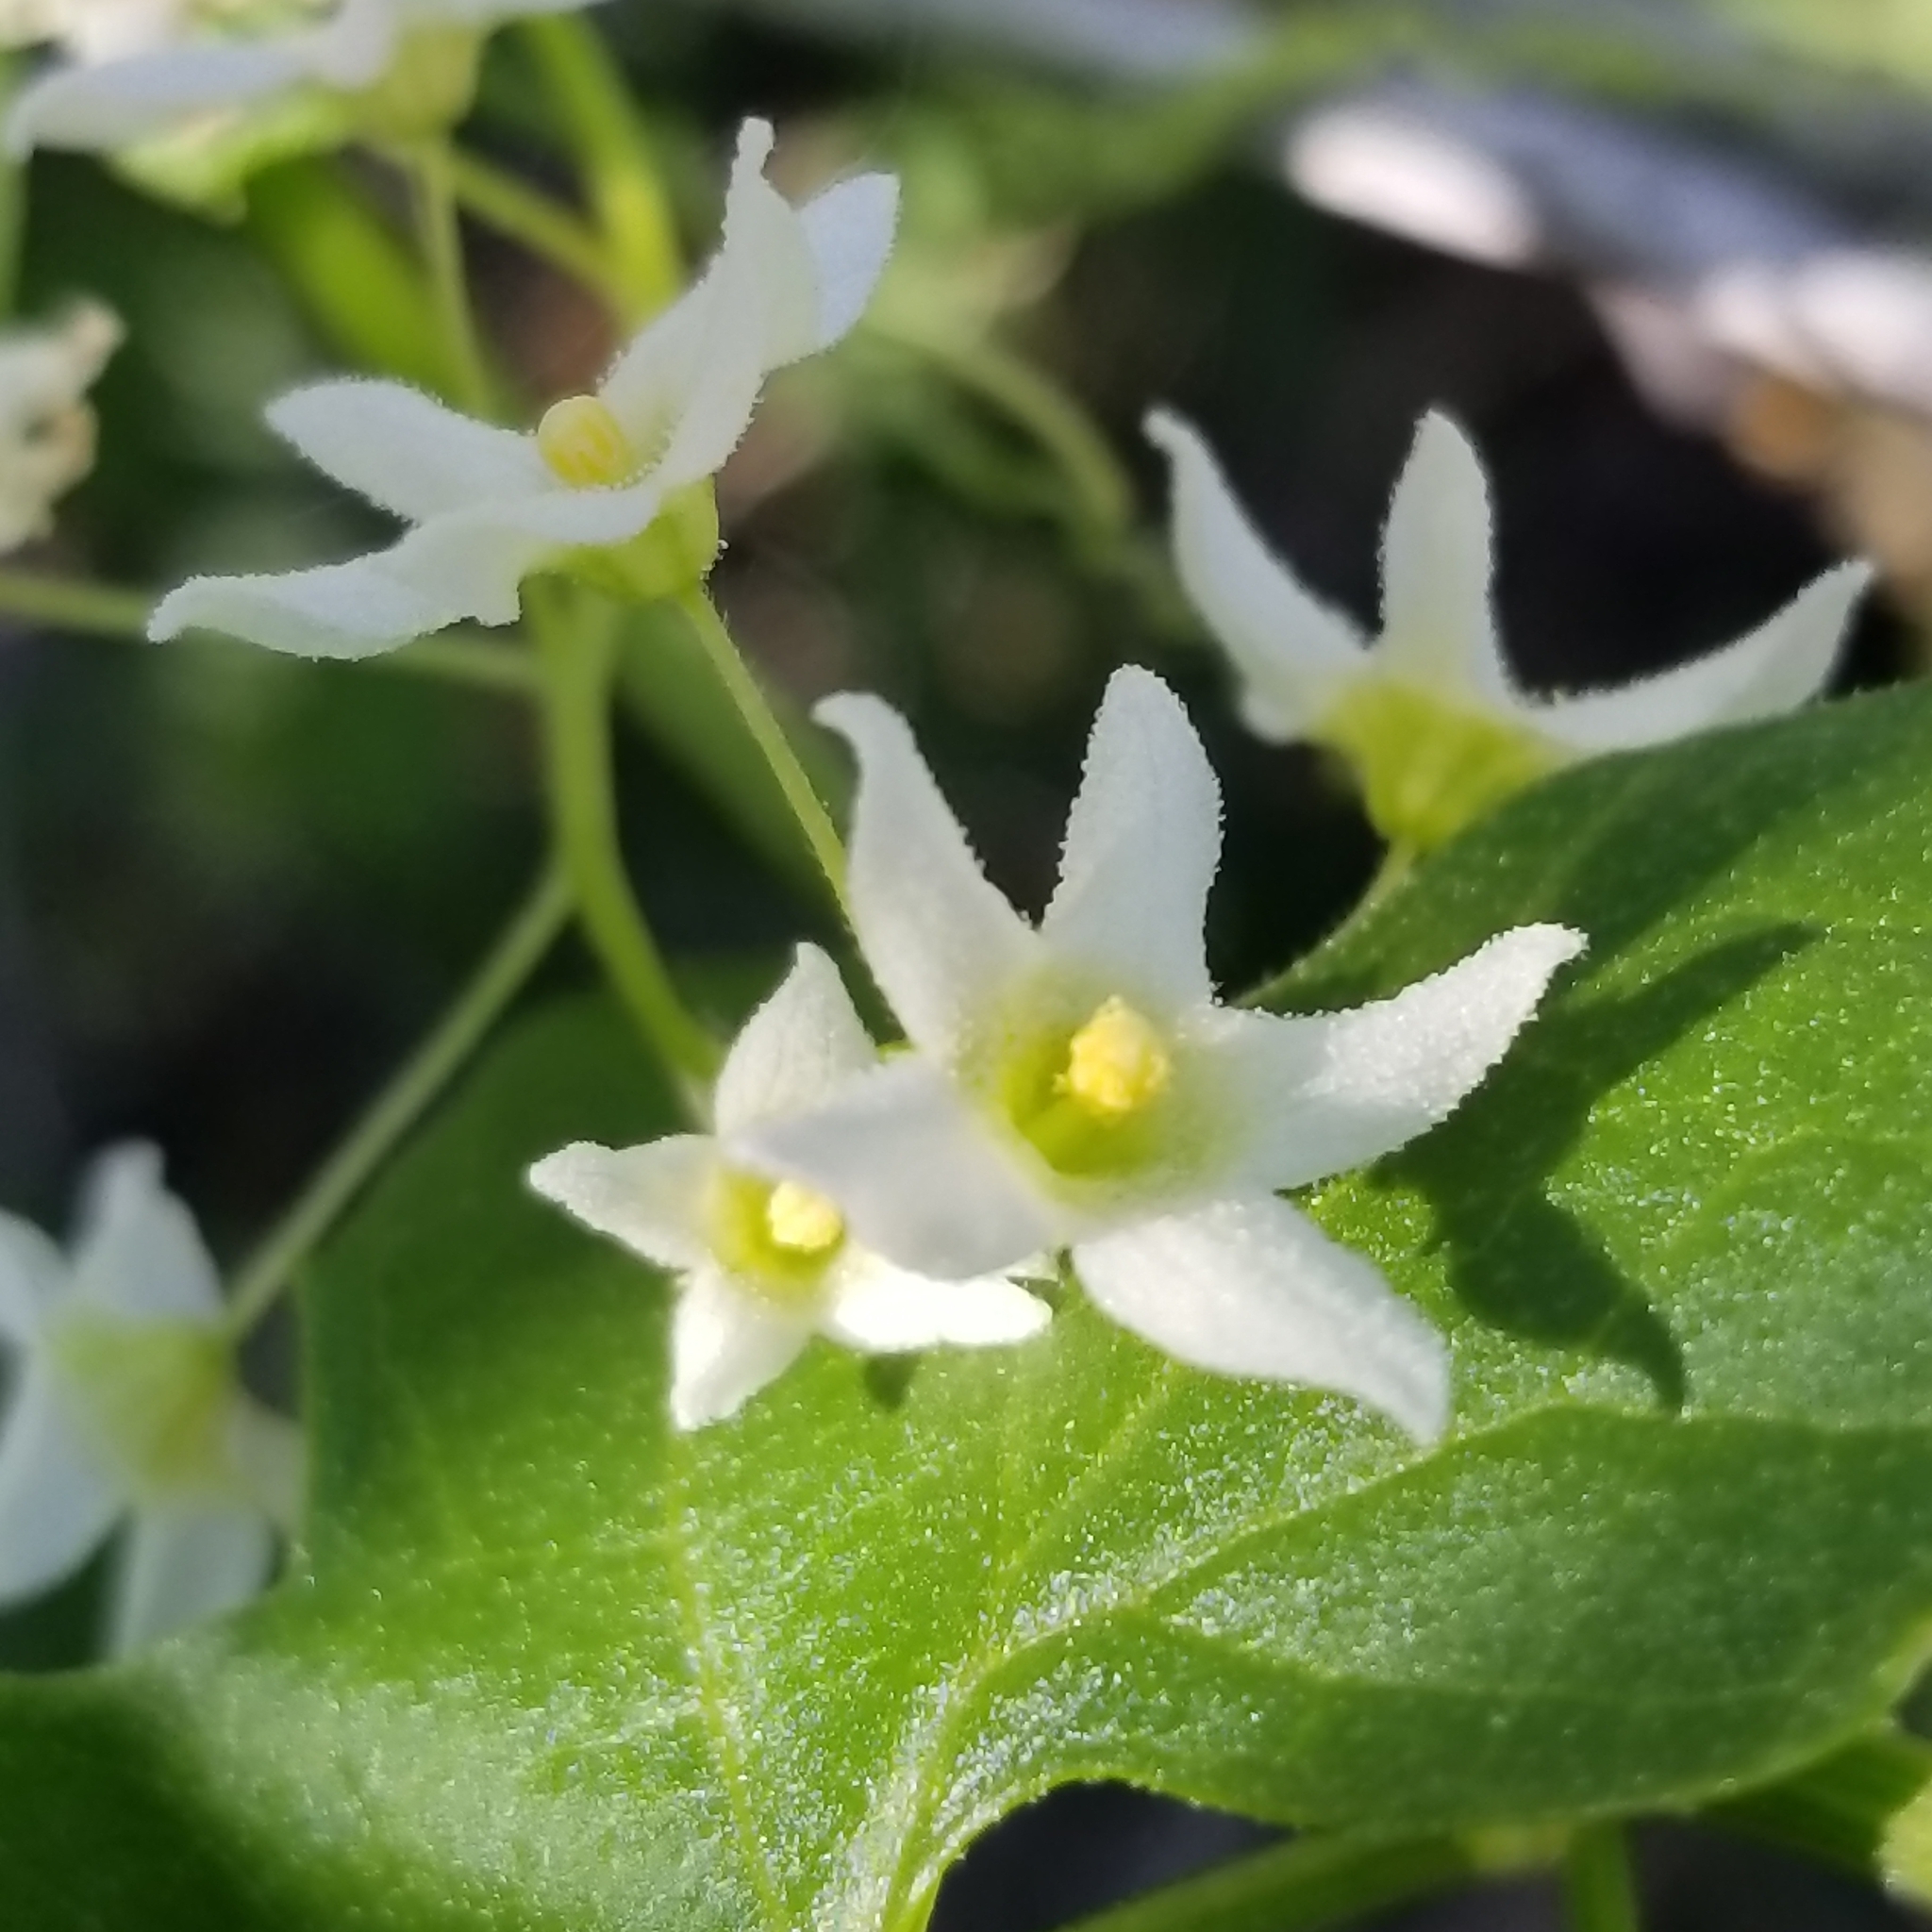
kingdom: Plantae
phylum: Tracheophyta
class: Magnoliopsida
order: Cucurbitales
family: Cucurbitaceae
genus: Marah
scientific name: Marah macrocarpa
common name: Cucamonga manroot
